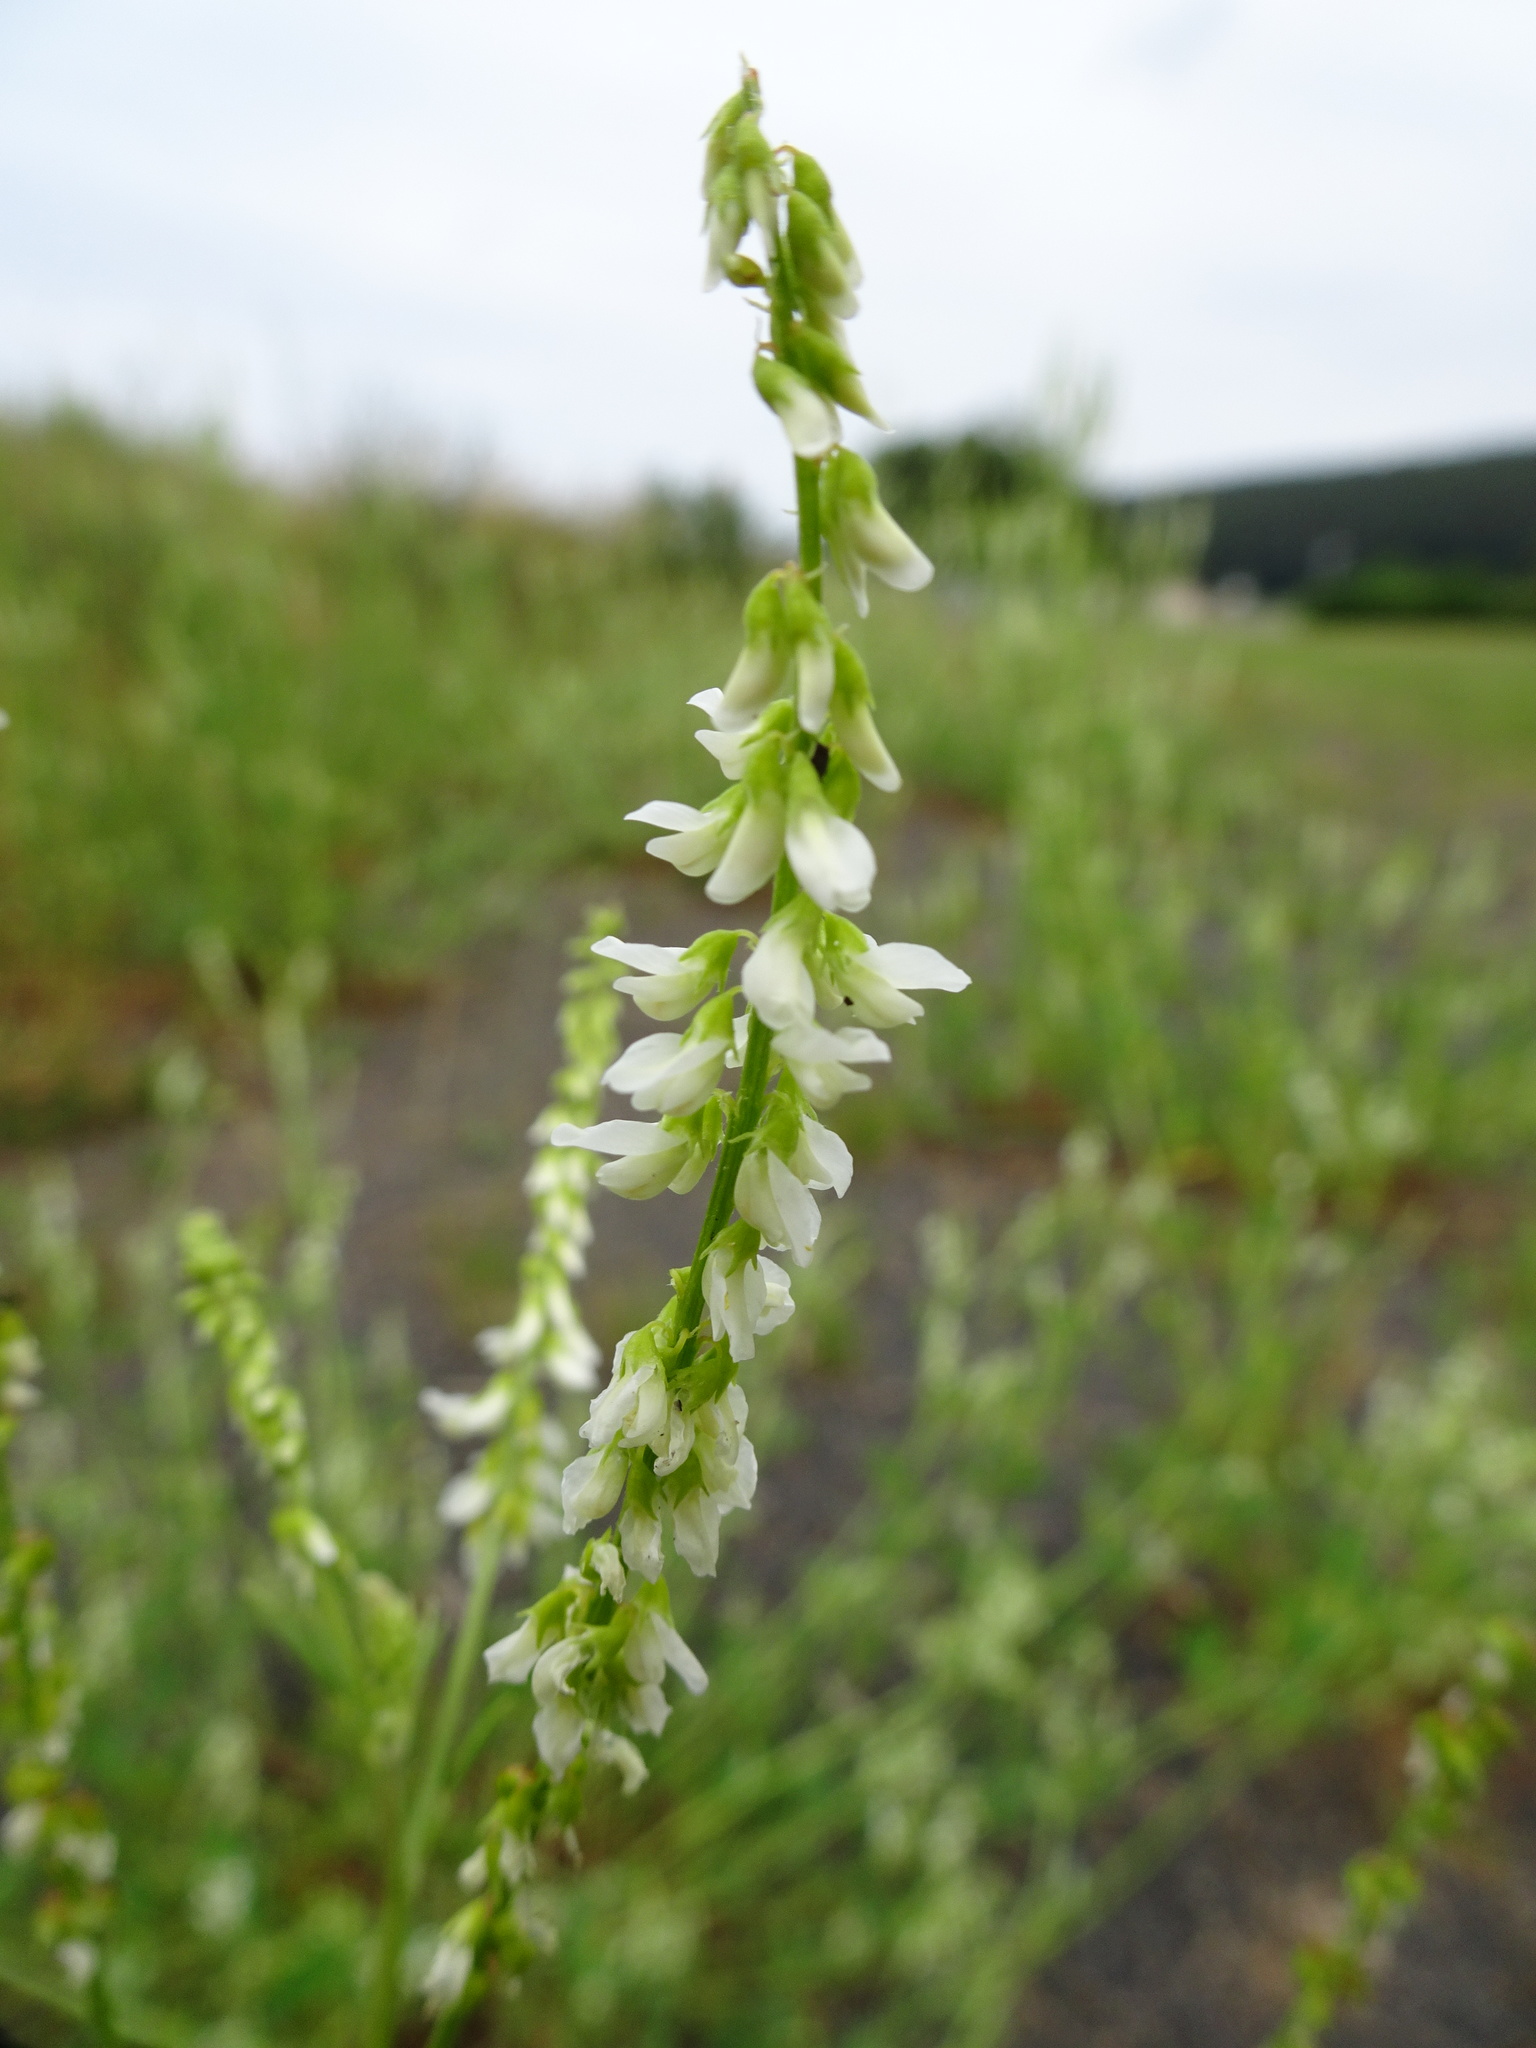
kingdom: Plantae
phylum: Tracheophyta
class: Magnoliopsida
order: Fabales
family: Fabaceae
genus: Melilotus
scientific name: Melilotus albus
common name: White melilot
